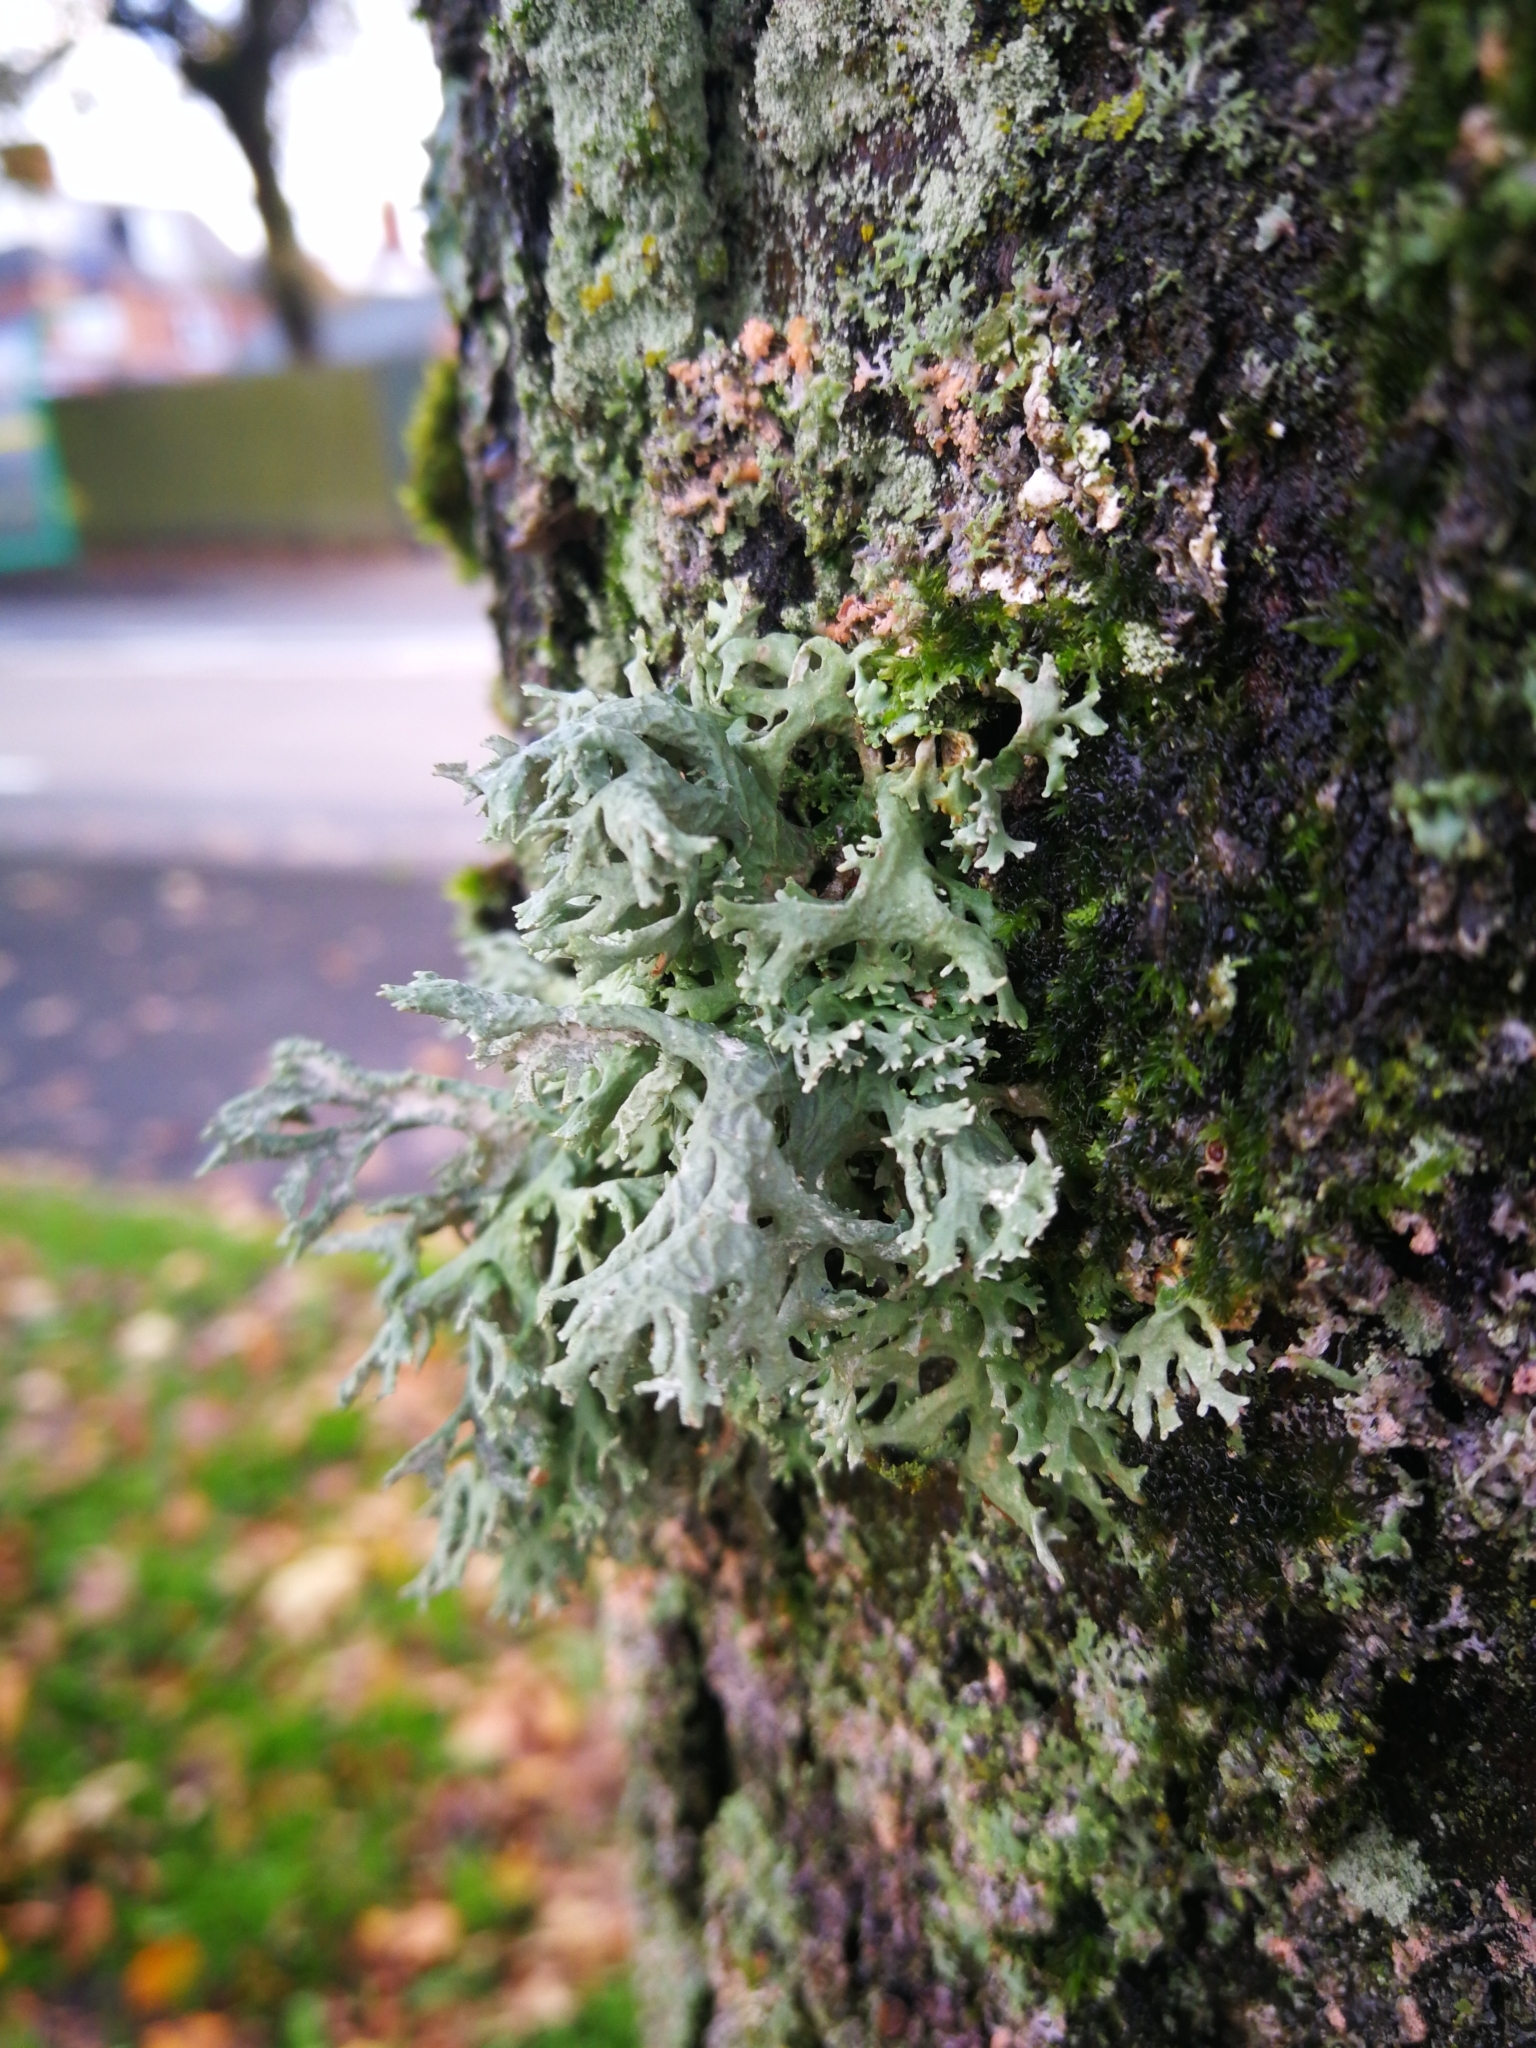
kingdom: Fungi
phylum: Ascomycota
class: Lecanoromycetes
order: Lecanorales
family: Parmeliaceae
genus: Evernia
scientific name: Evernia prunastri
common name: Oak moss
